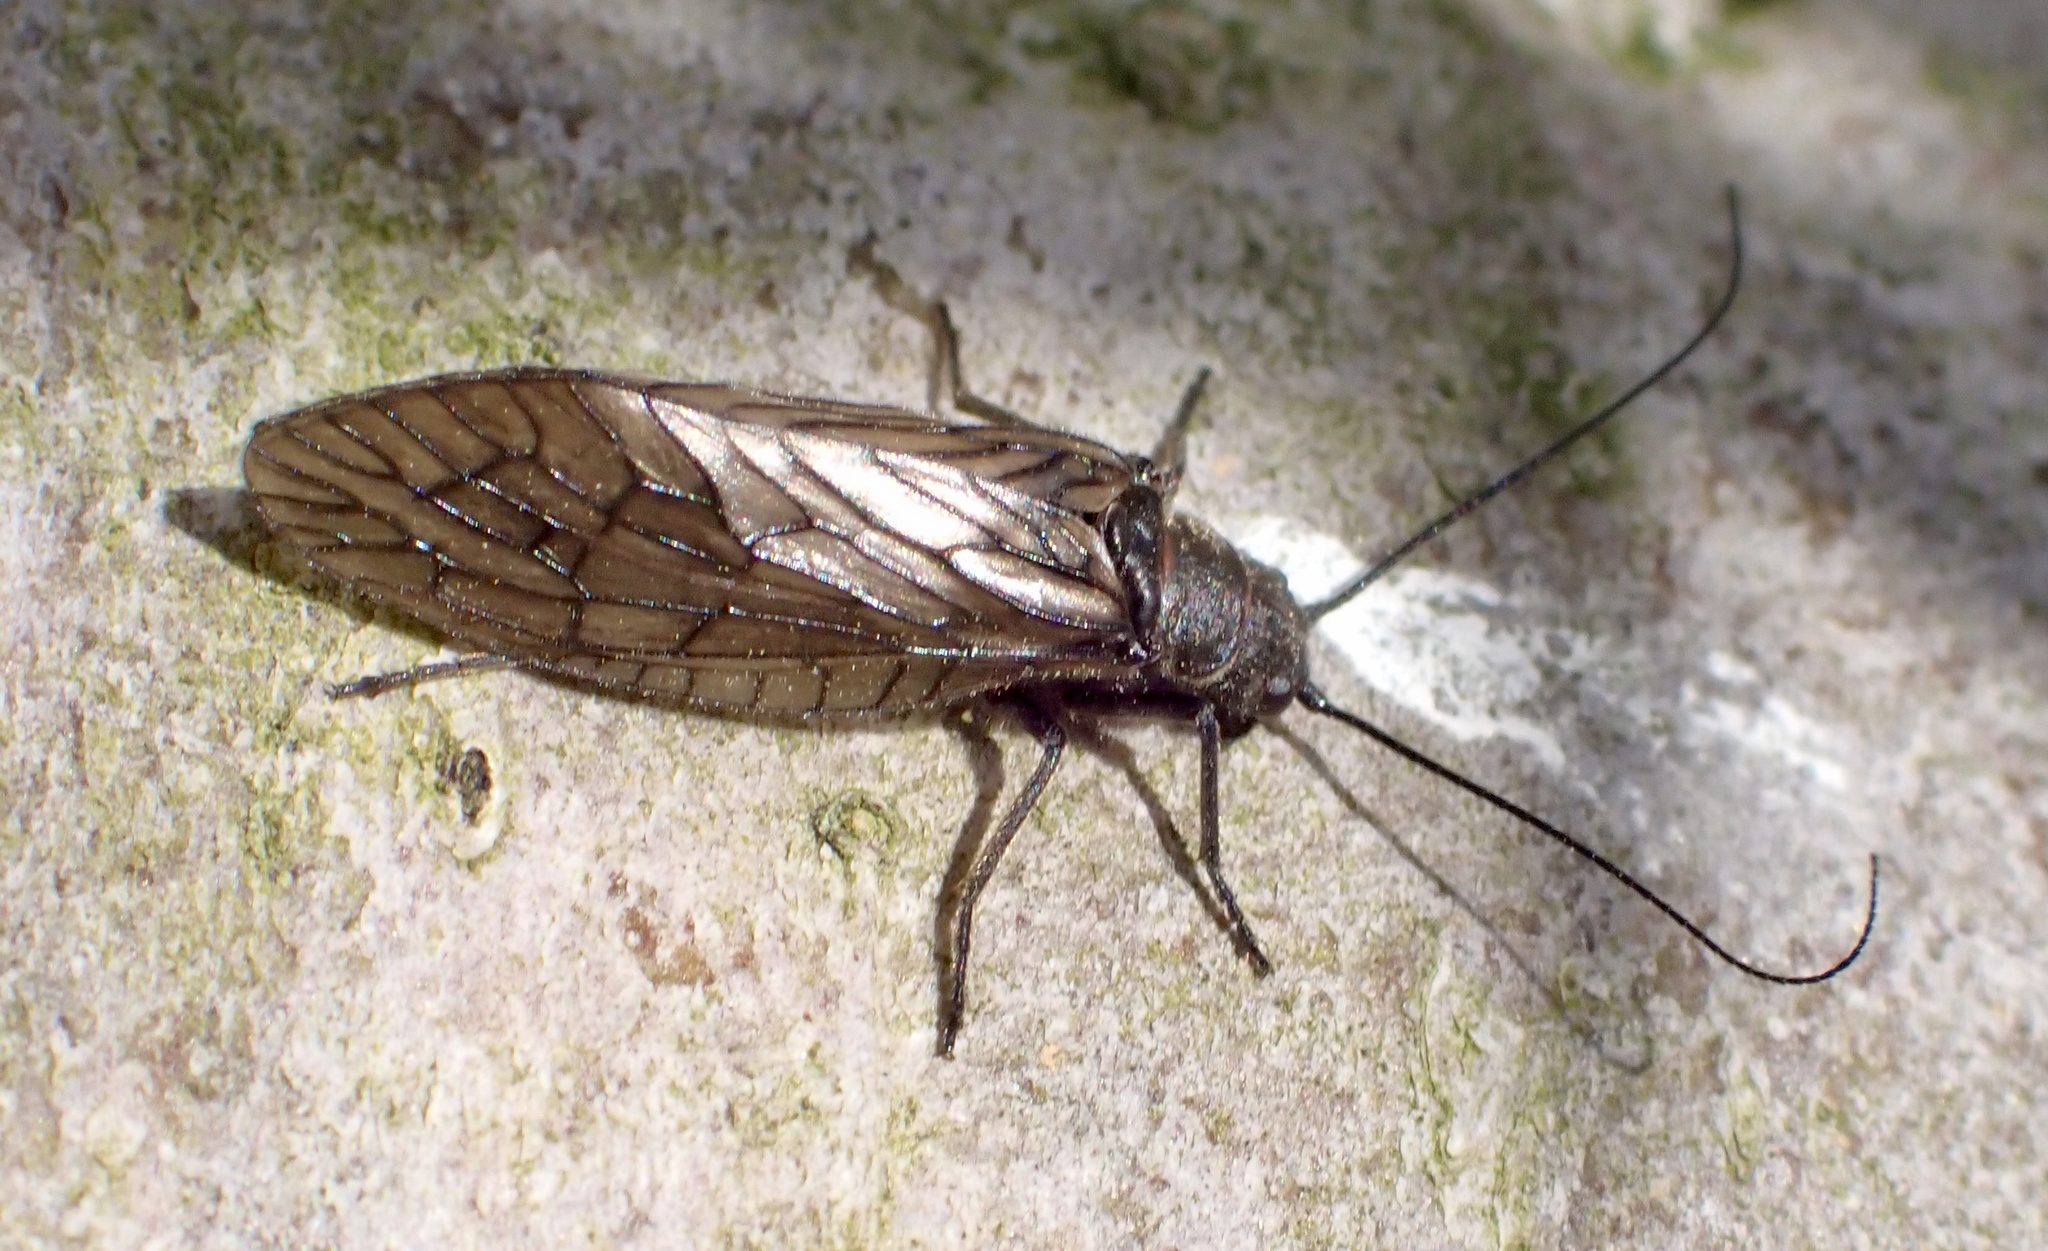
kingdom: Animalia
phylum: Arthropoda
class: Insecta
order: Megaloptera
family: Sialidae
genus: Sialis
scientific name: Sialis
